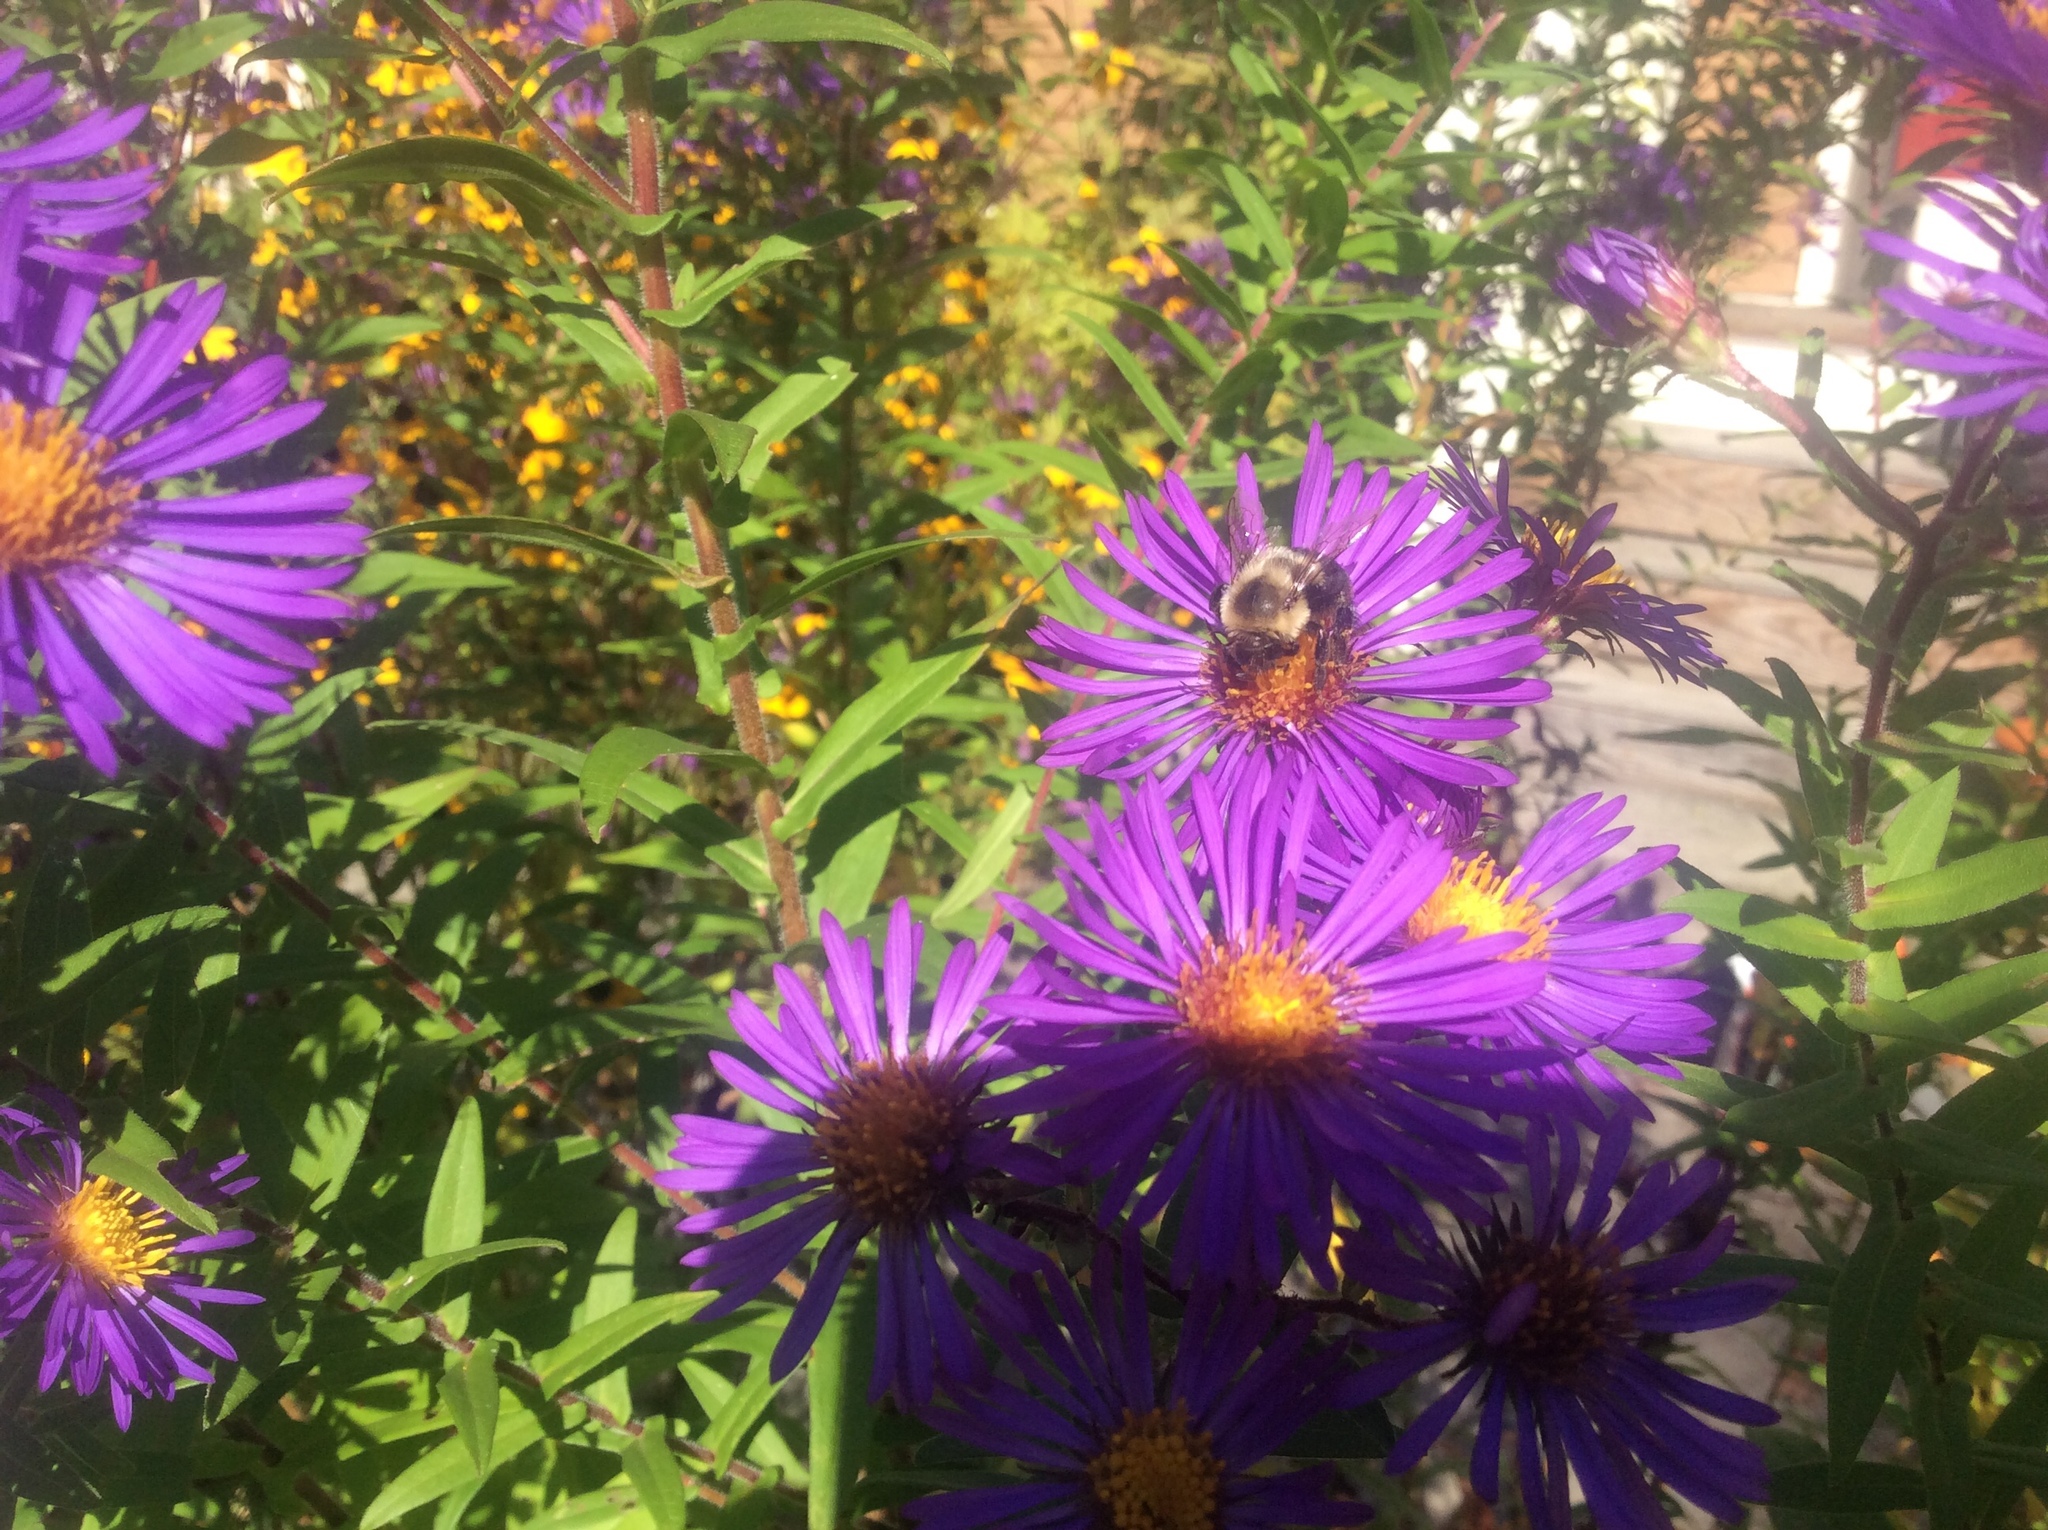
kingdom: Animalia
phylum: Arthropoda
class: Insecta
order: Hymenoptera
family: Apidae
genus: Bombus
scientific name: Bombus impatiens
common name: Common eastern bumble bee
